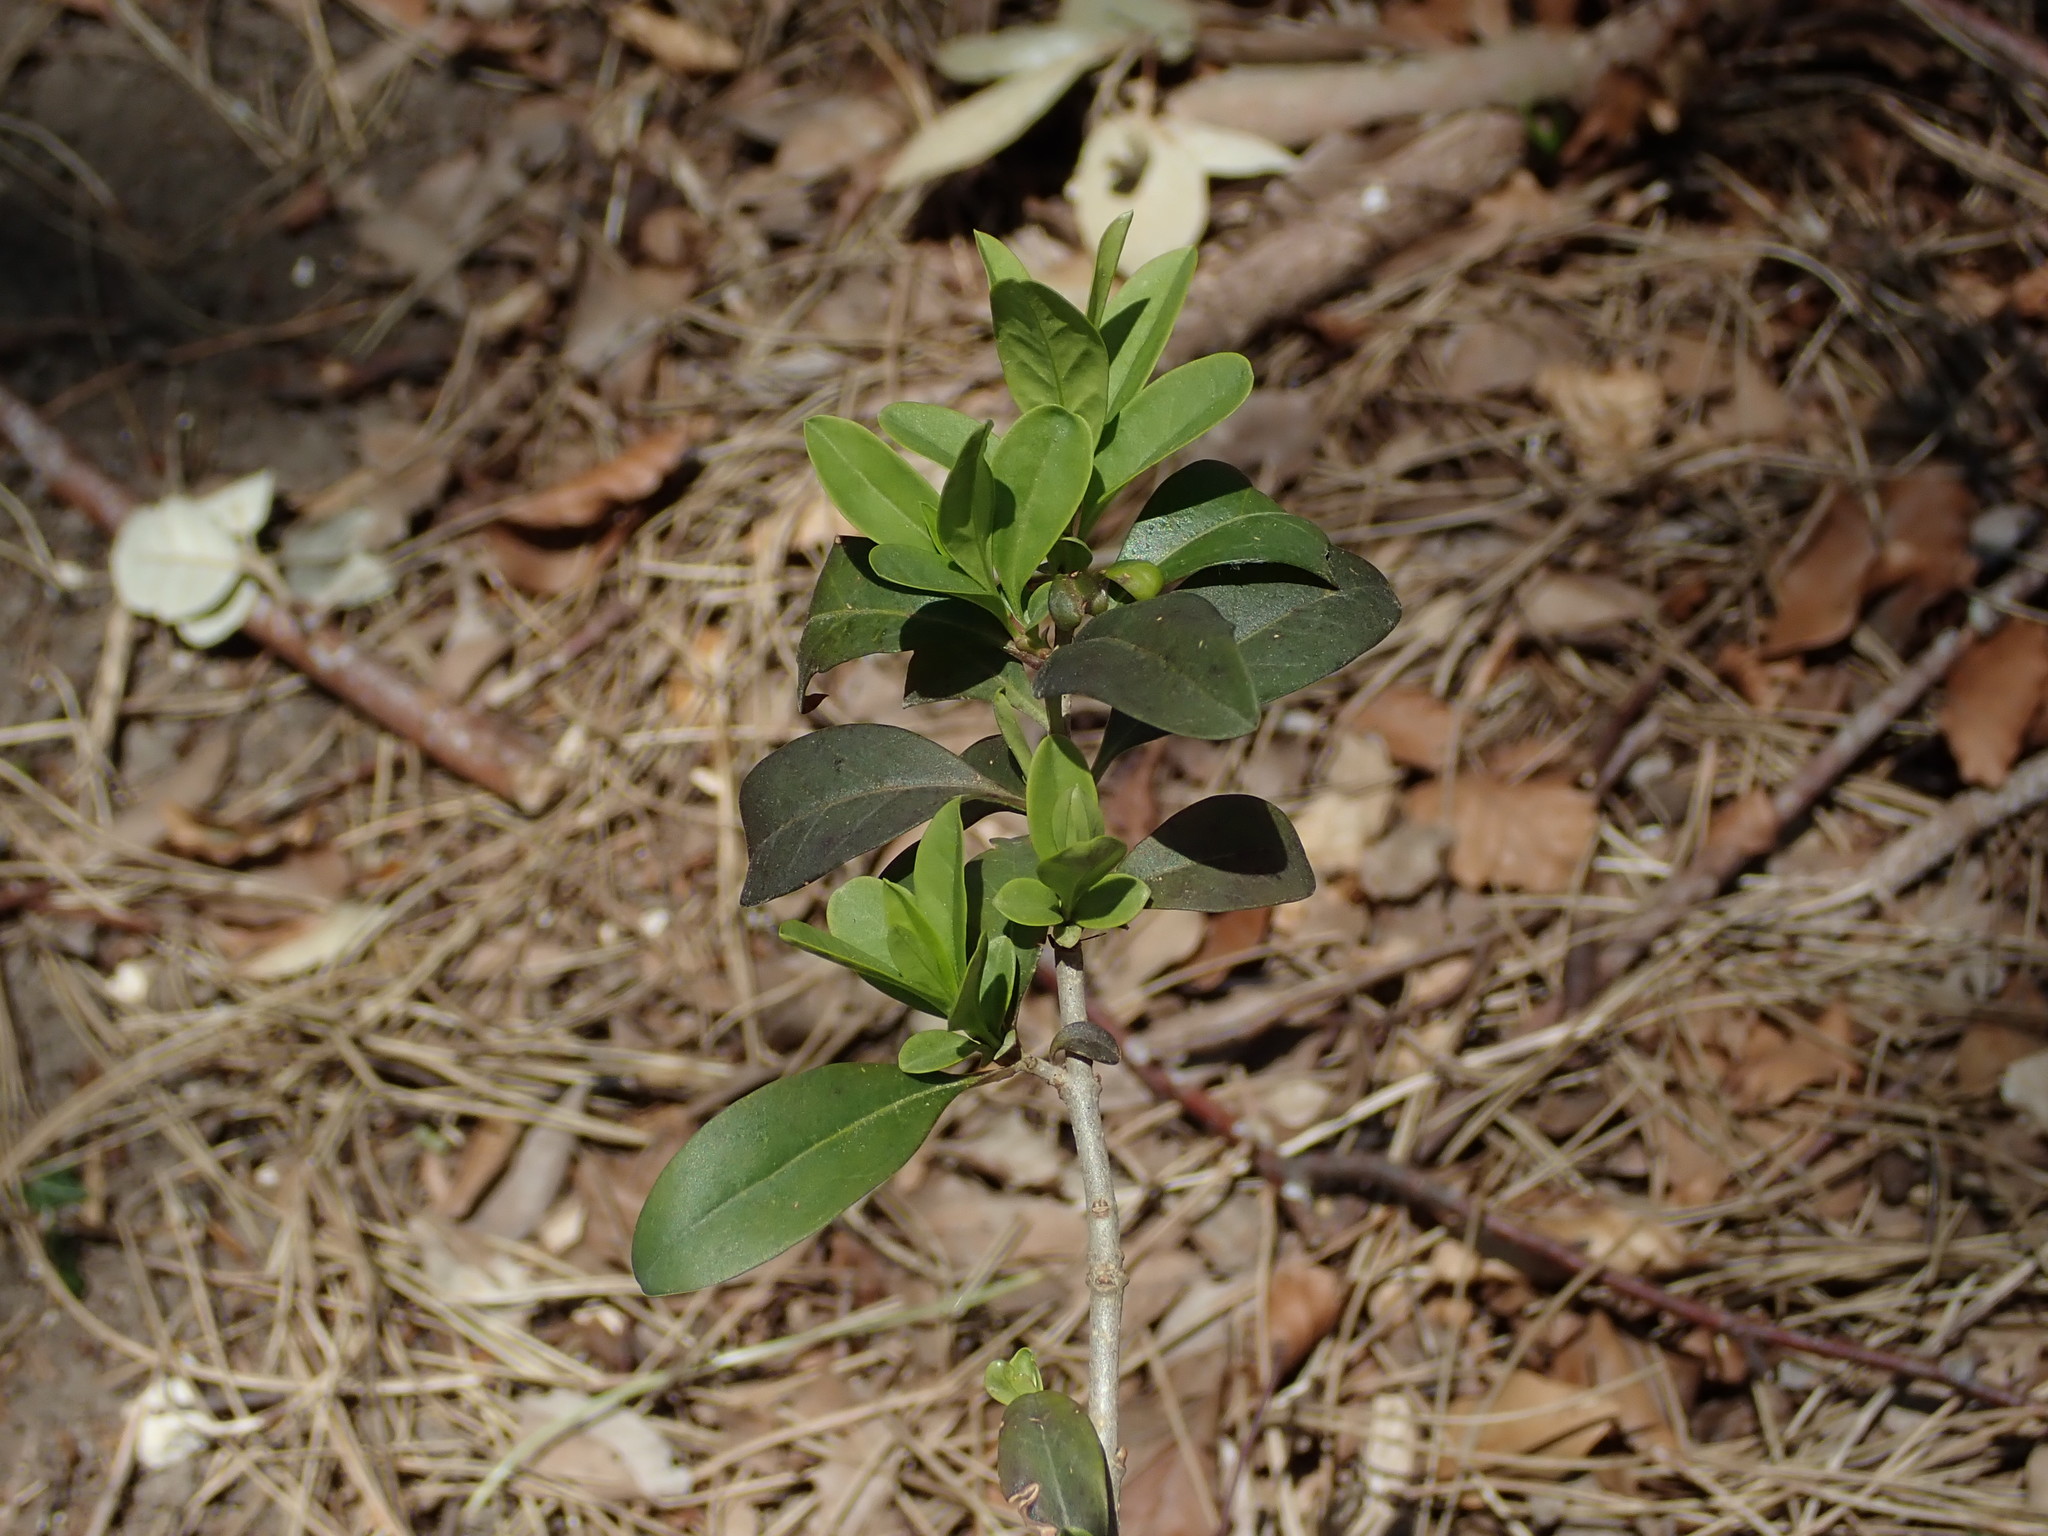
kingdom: Plantae
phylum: Tracheophyta
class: Magnoliopsida
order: Lamiales
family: Oleaceae
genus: Ligustrum
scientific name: Ligustrum vulgare
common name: Wild privet
